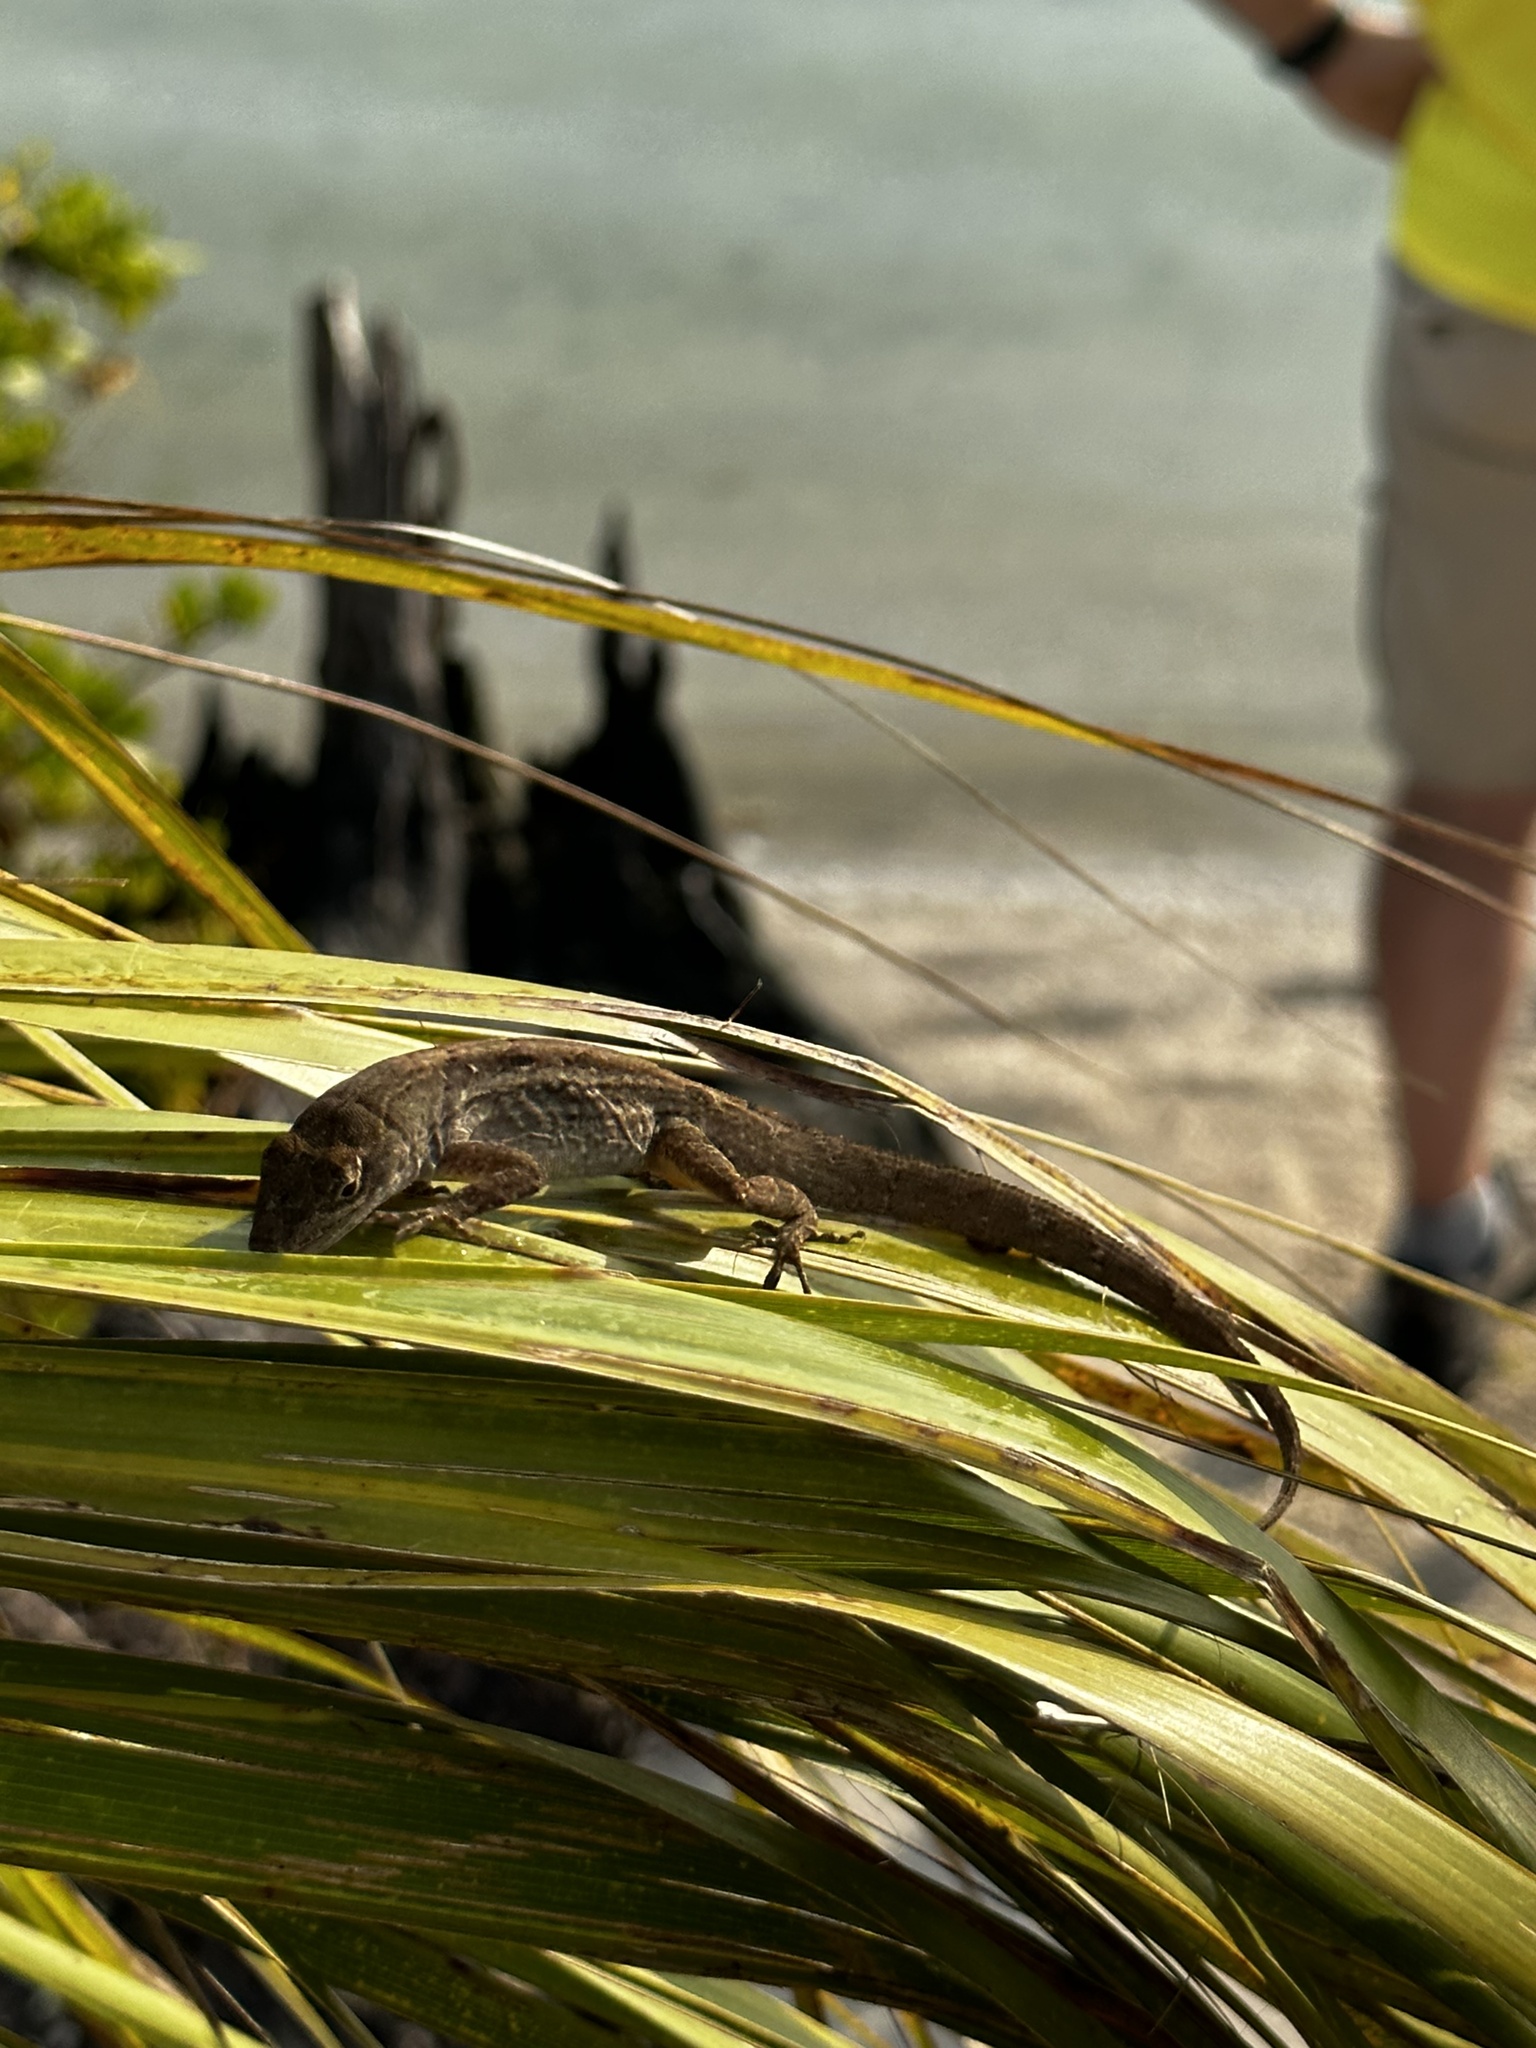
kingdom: Animalia
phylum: Chordata
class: Squamata
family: Dactyloidae
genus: Anolis
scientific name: Anolis sagrei
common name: Brown anole
